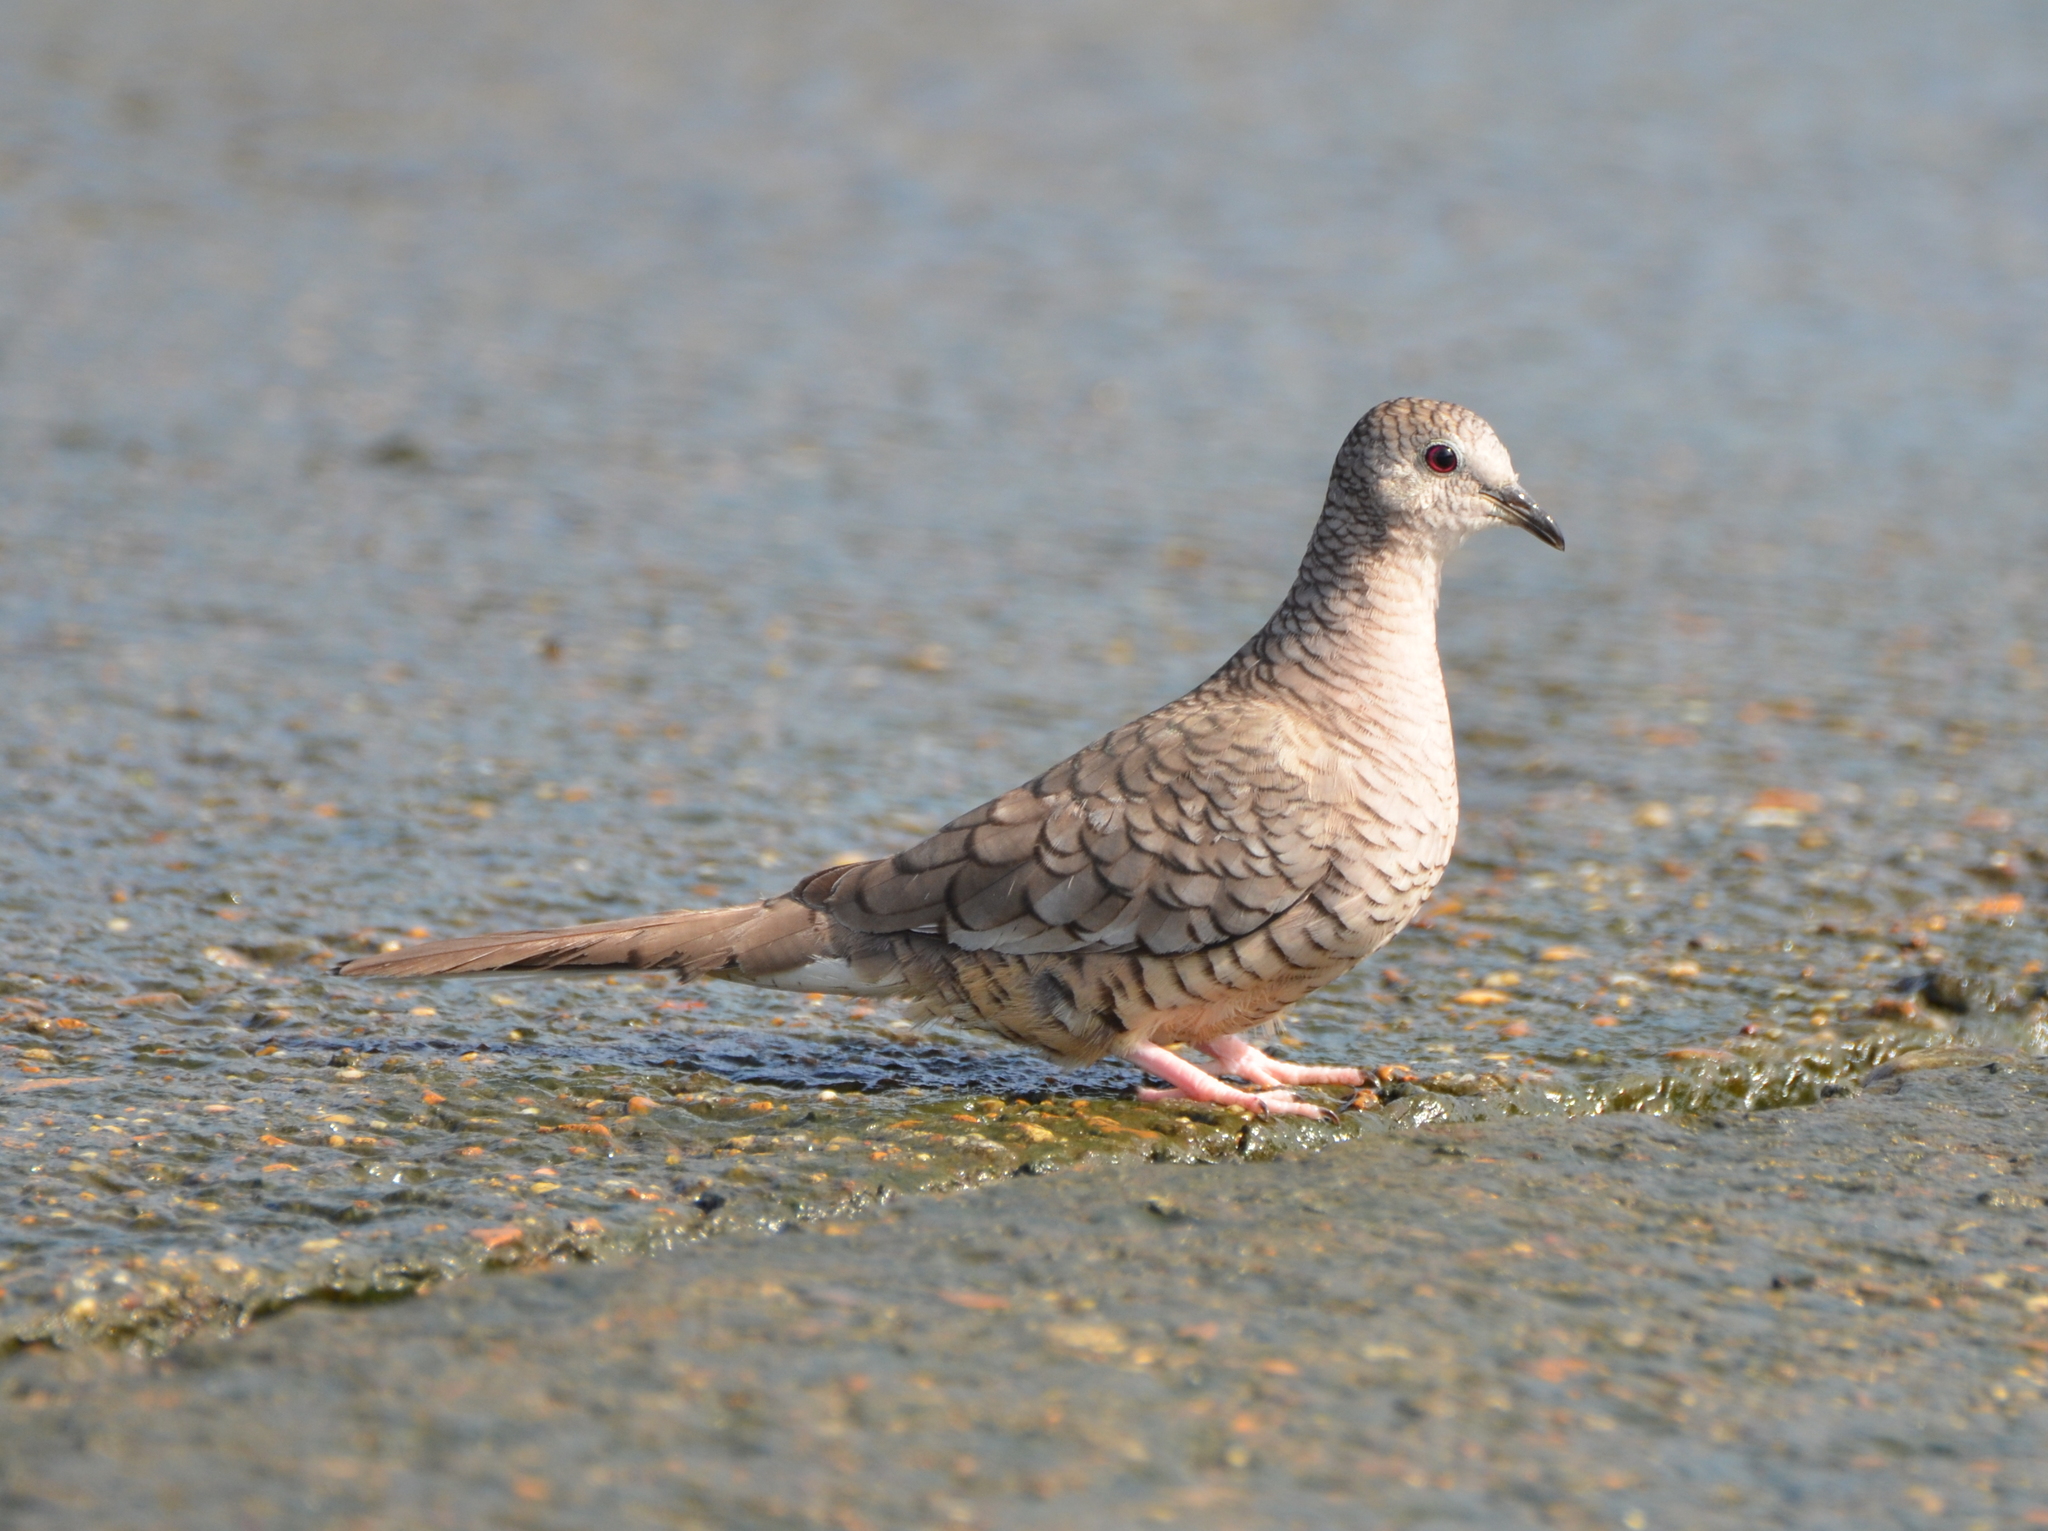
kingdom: Animalia
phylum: Chordata
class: Aves
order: Columbiformes
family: Columbidae
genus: Columbina
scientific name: Columbina inca
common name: Inca dove
